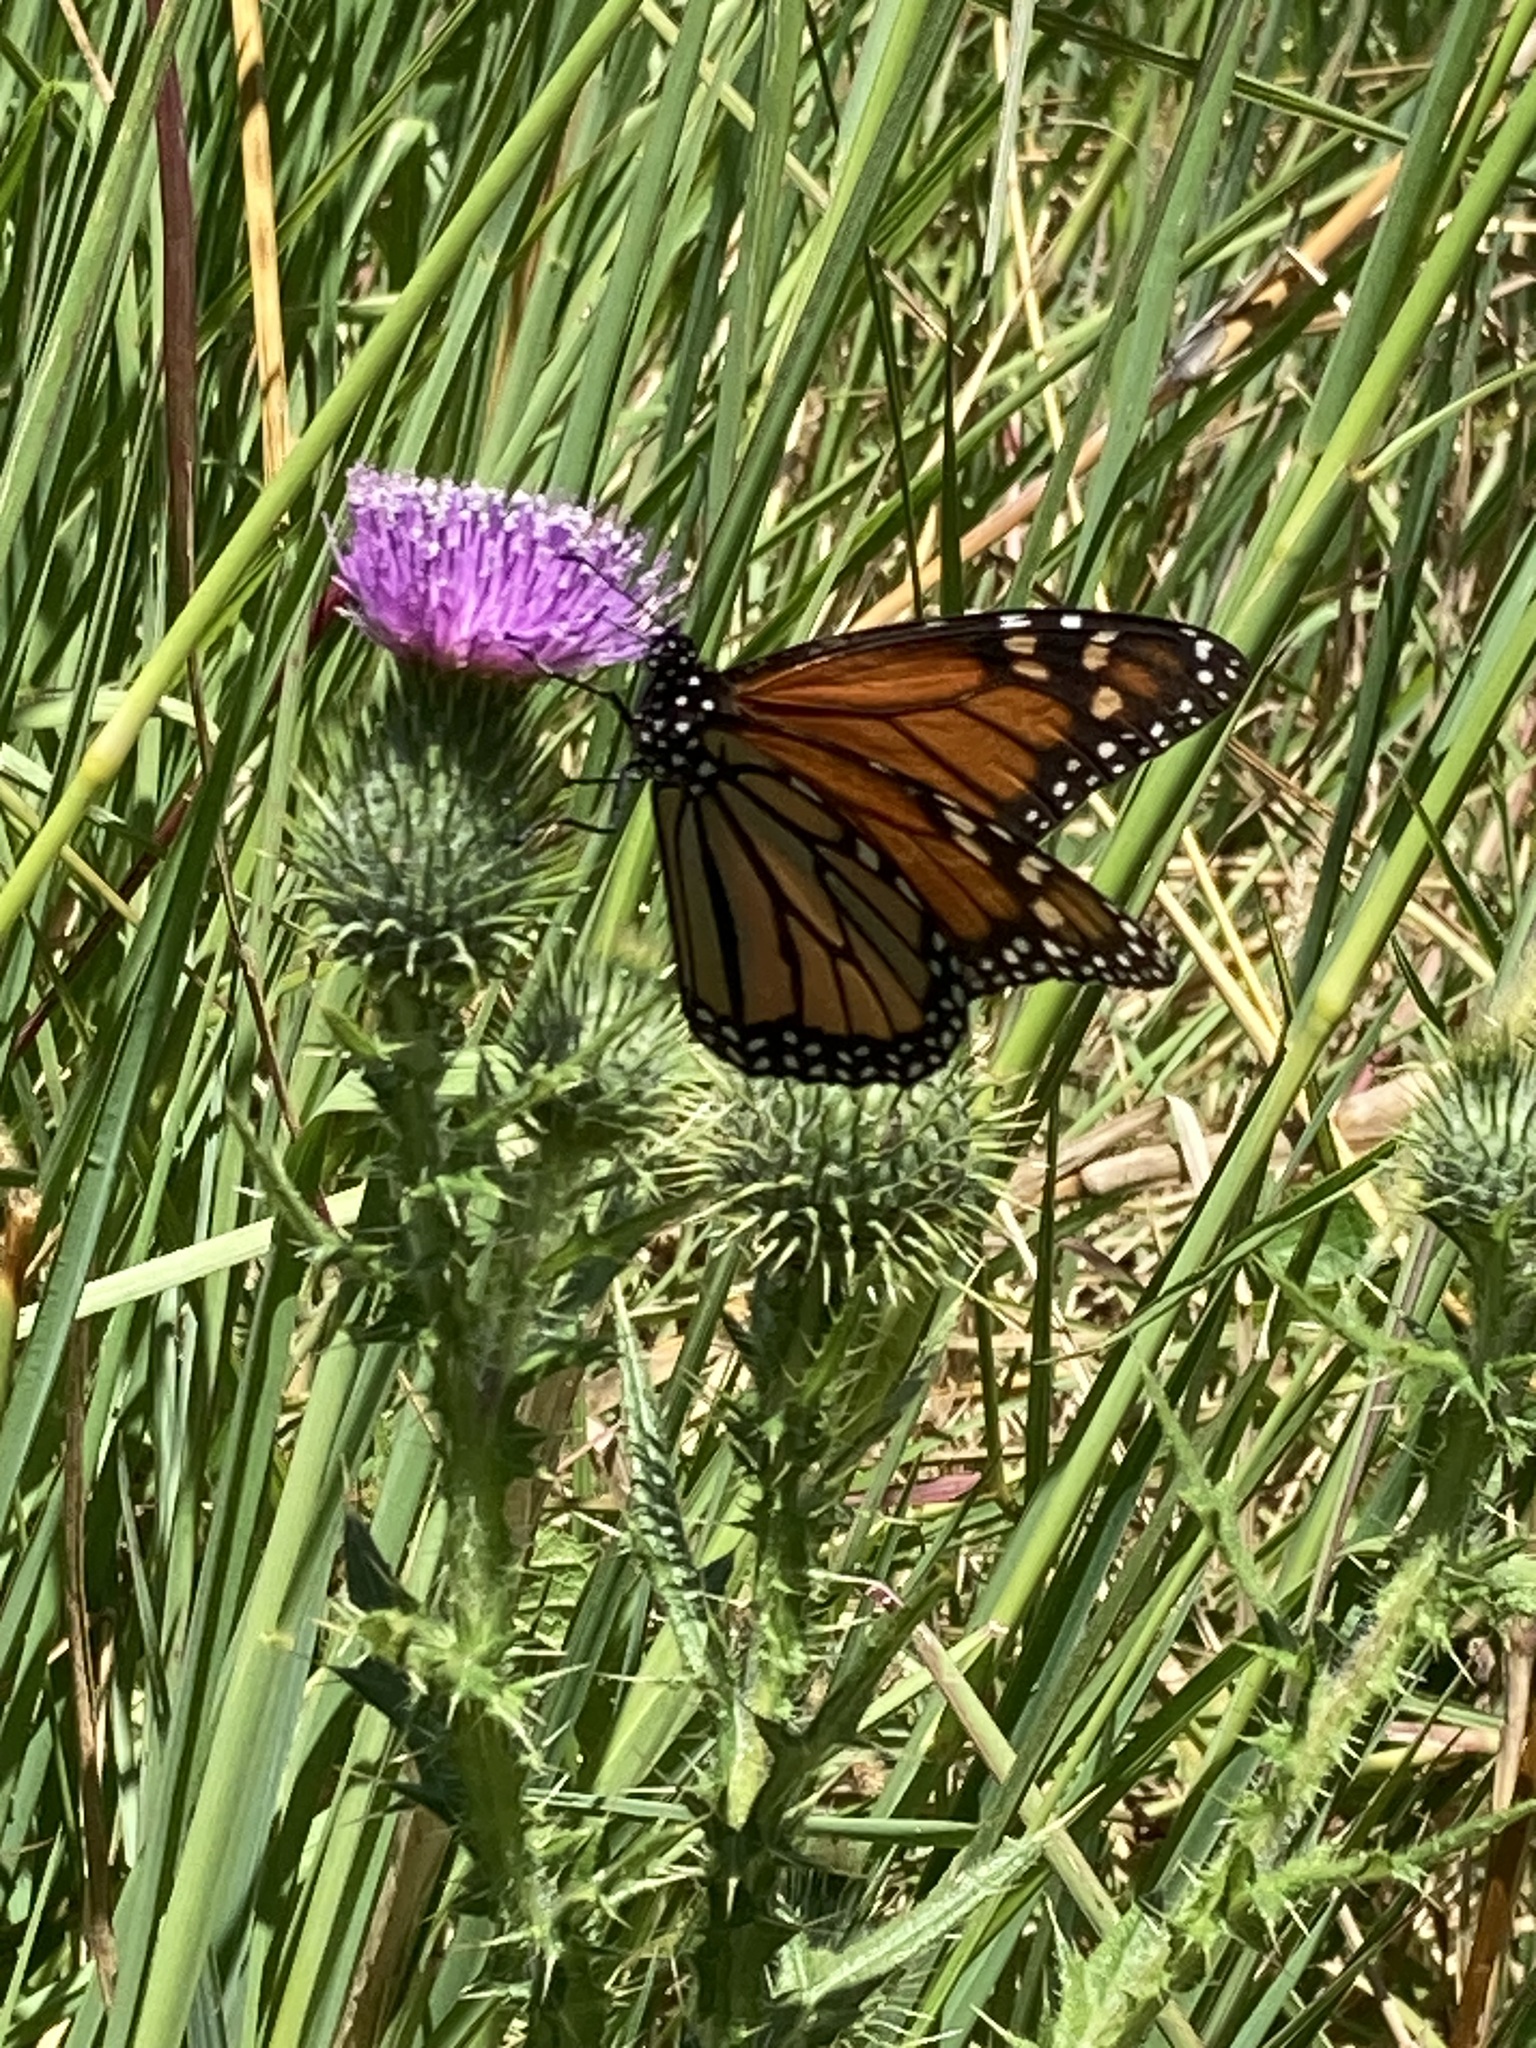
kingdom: Animalia
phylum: Arthropoda
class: Insecta
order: Lepidoptera
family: Nymphalidae
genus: Danaus
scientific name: Danaus plexippus
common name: Monarch
